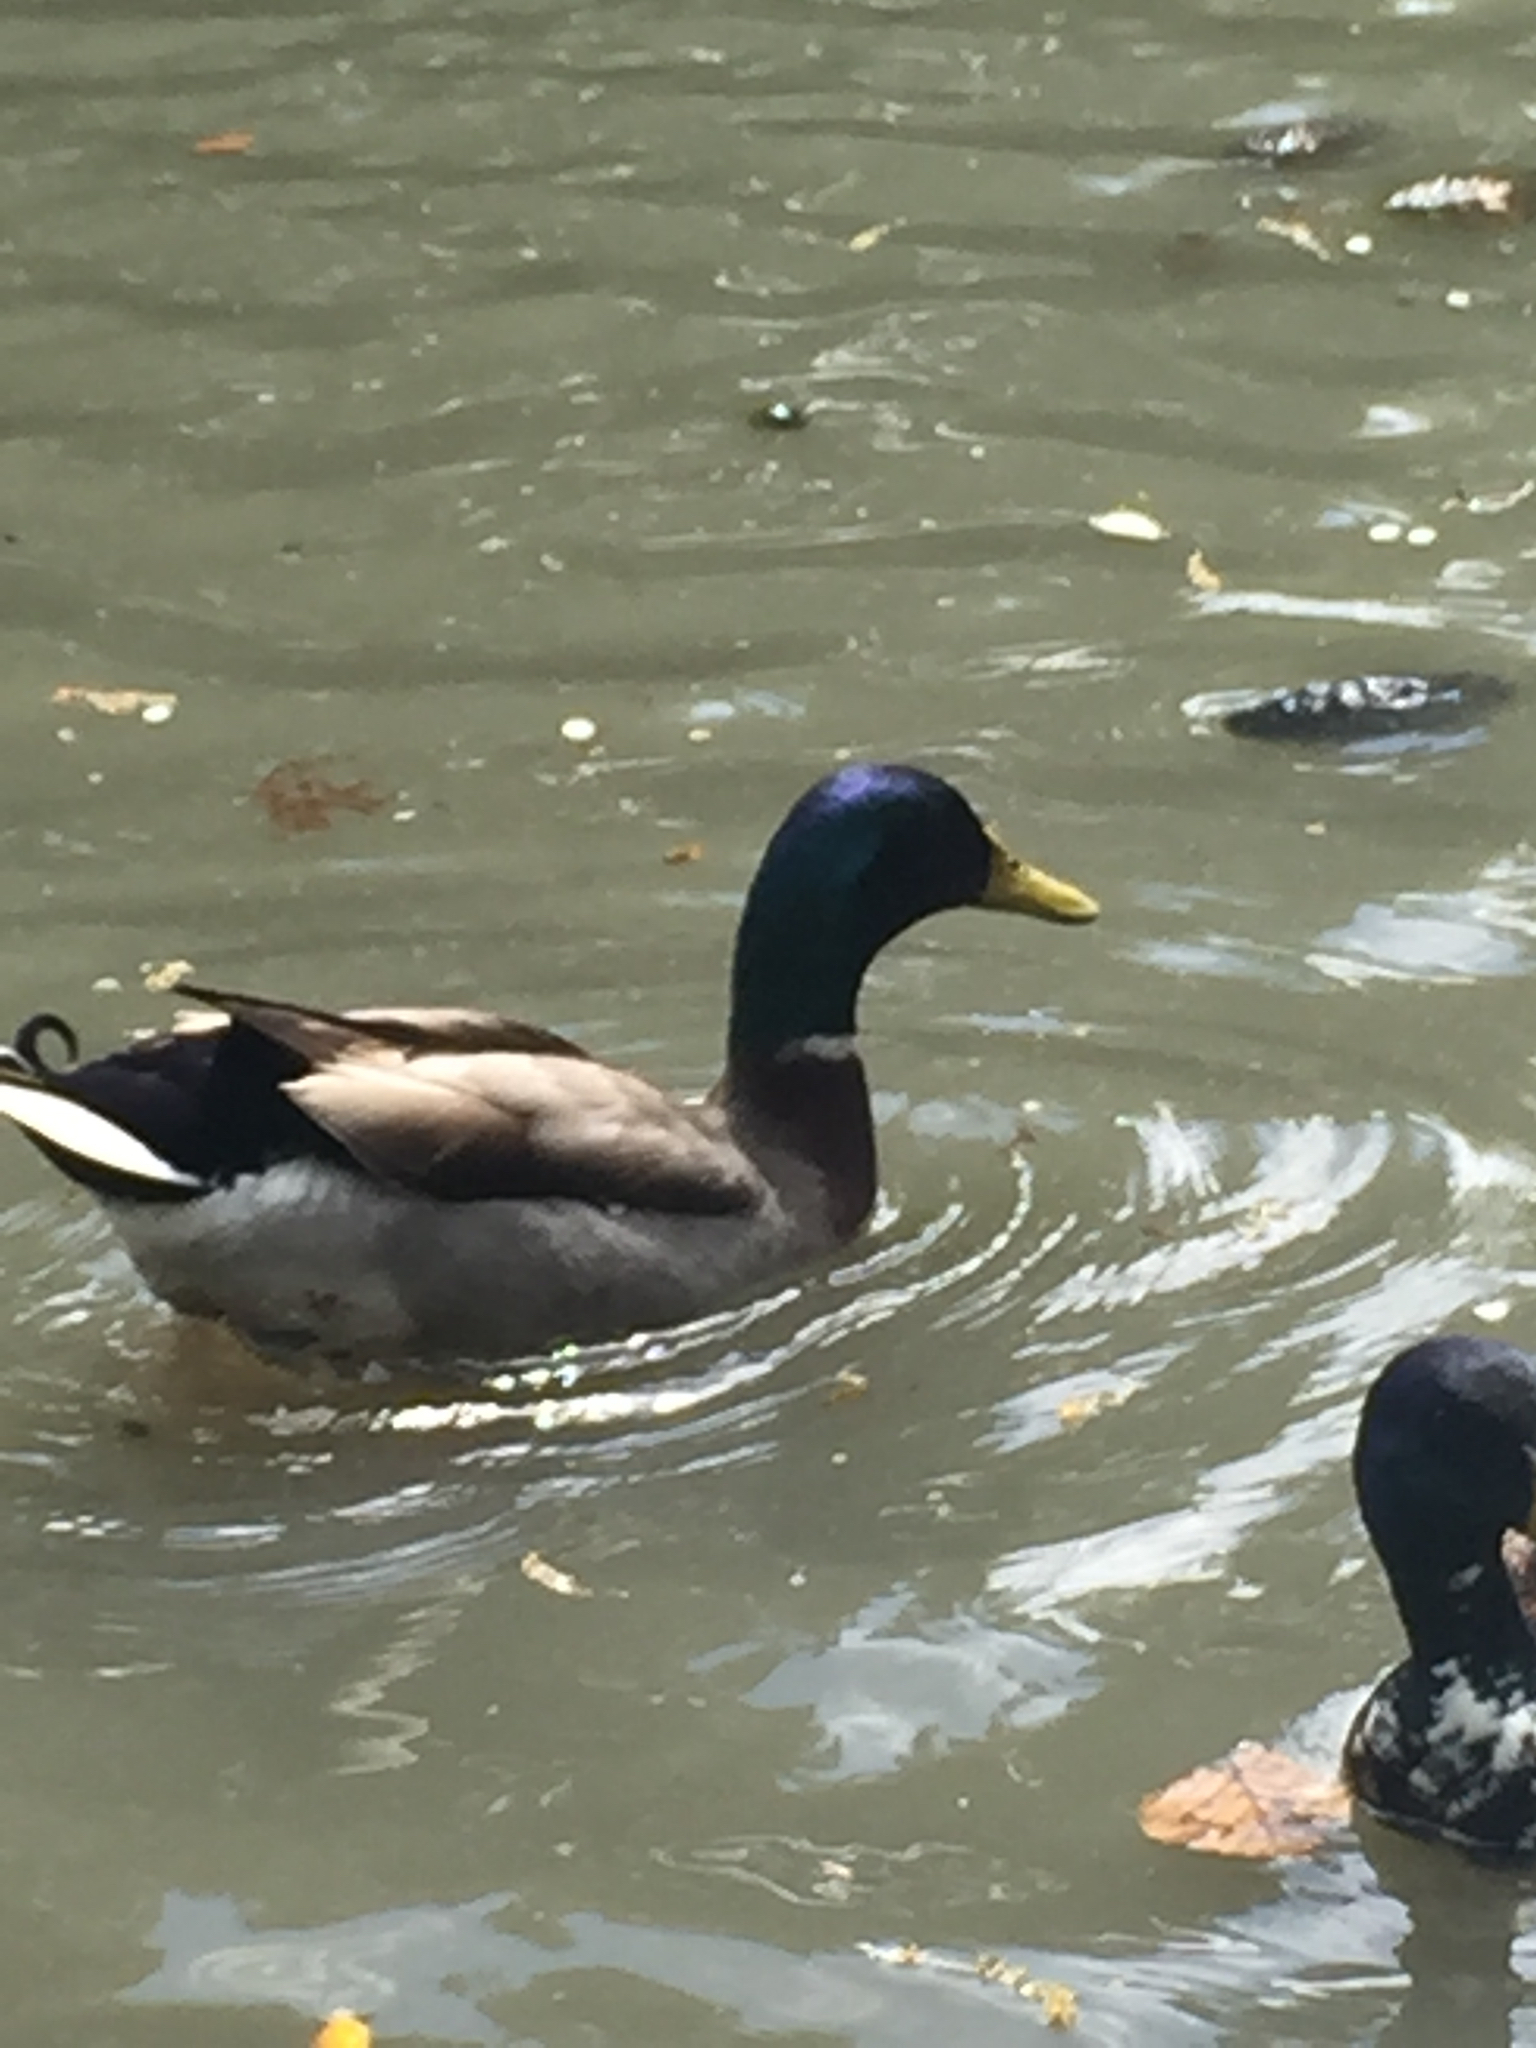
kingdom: Animalia
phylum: Chordata
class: Aves
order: Anseriformes
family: Anatidae
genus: Anas
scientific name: Anas platyrhynchos
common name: Mallard
